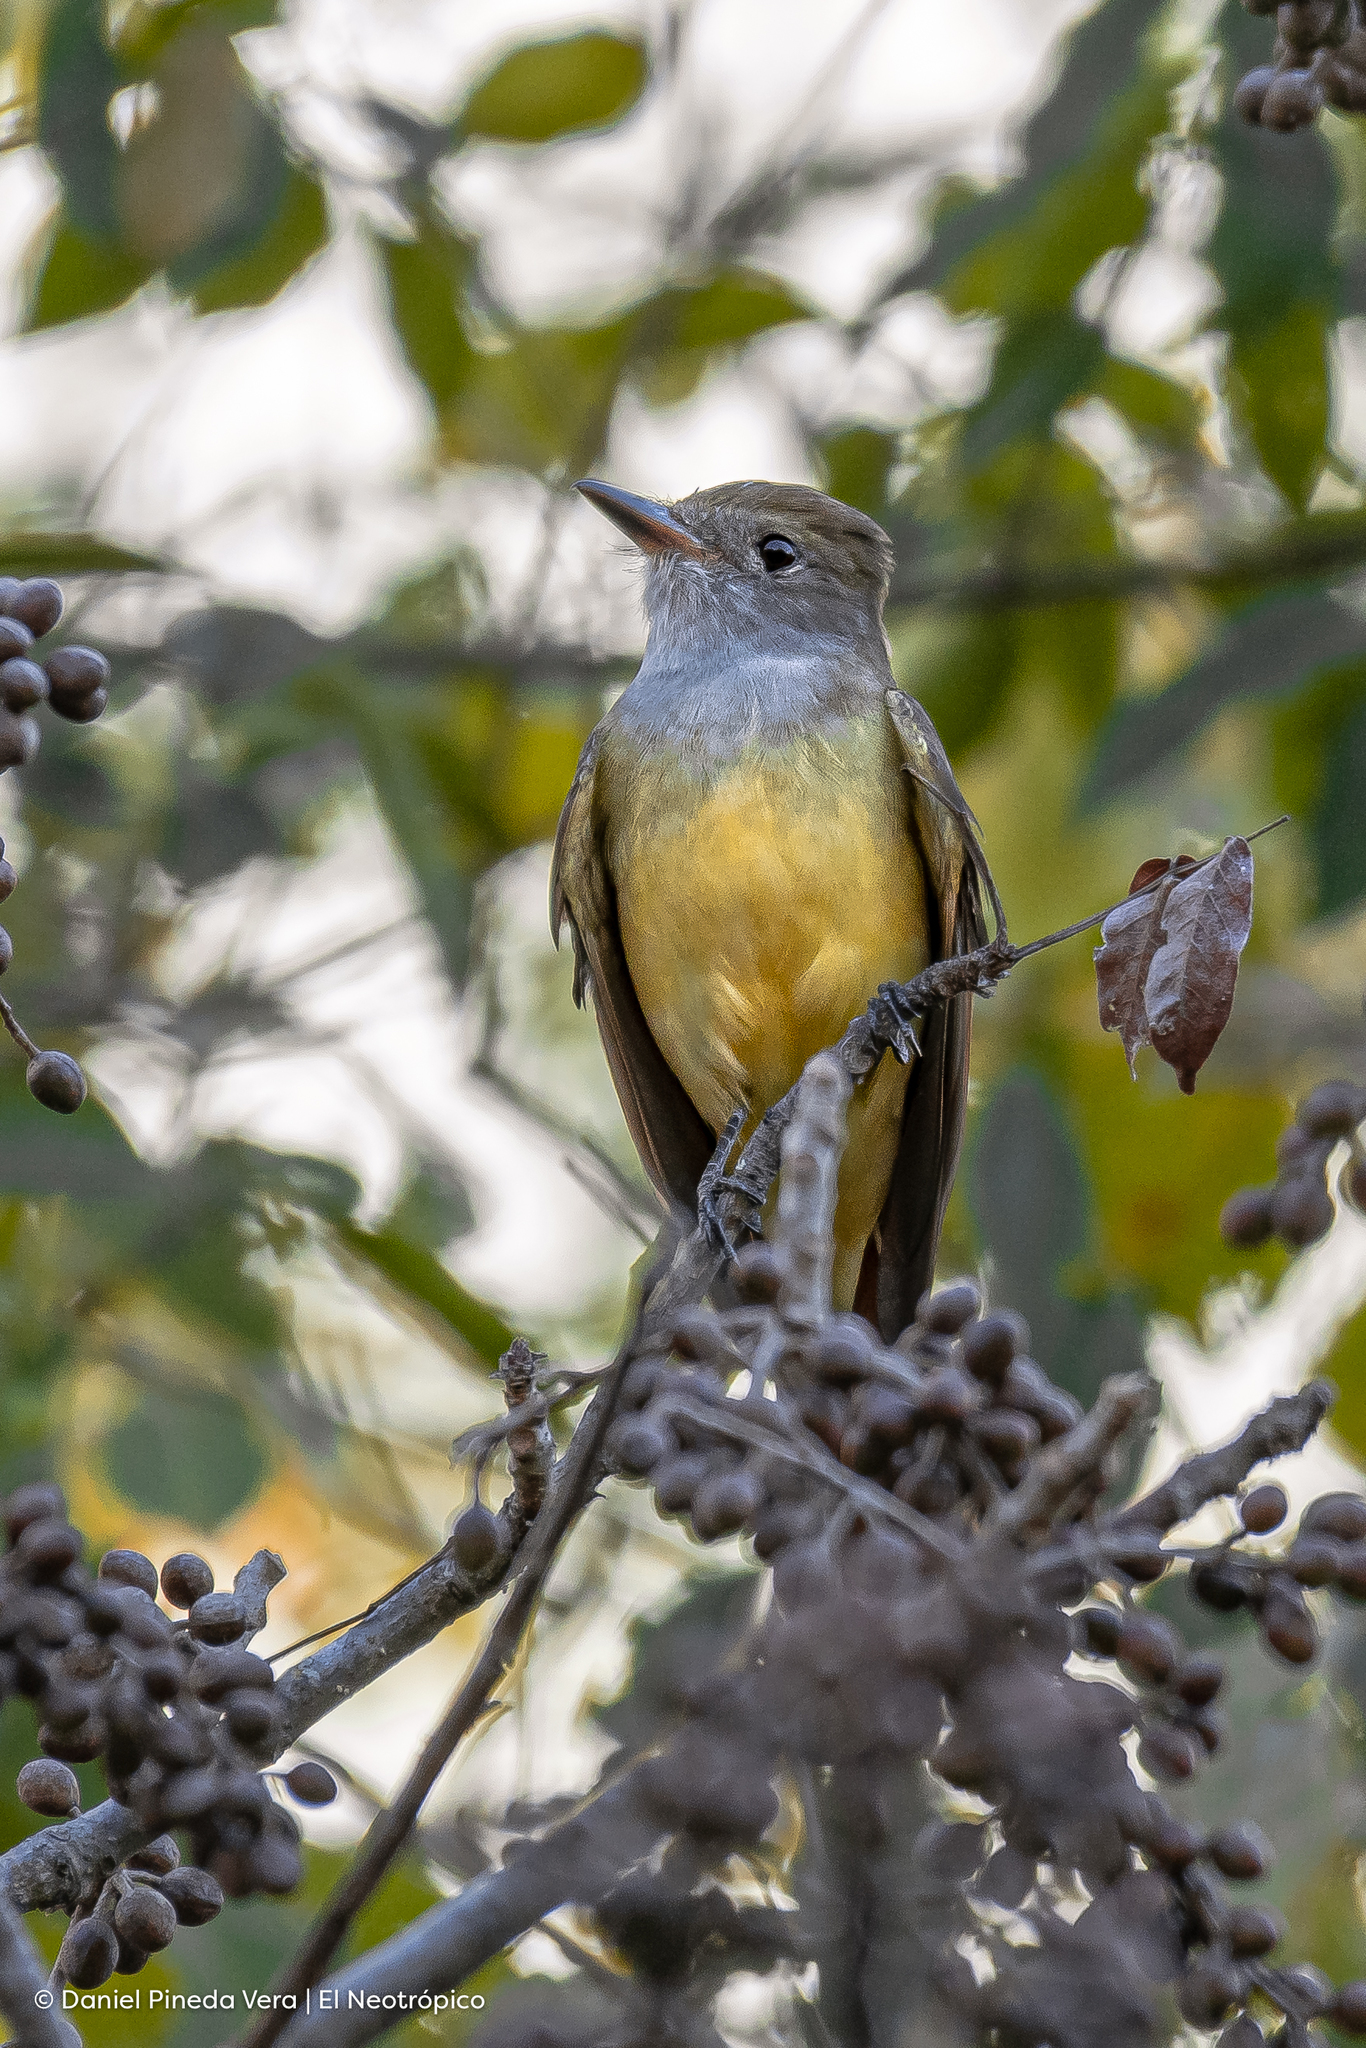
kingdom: Animalia
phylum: Chordata
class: Aves
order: Passeriformes
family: Tyrannidae
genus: Myiarchus
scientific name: Myiarchus tyrannulus
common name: Brown-crested flycatcher
